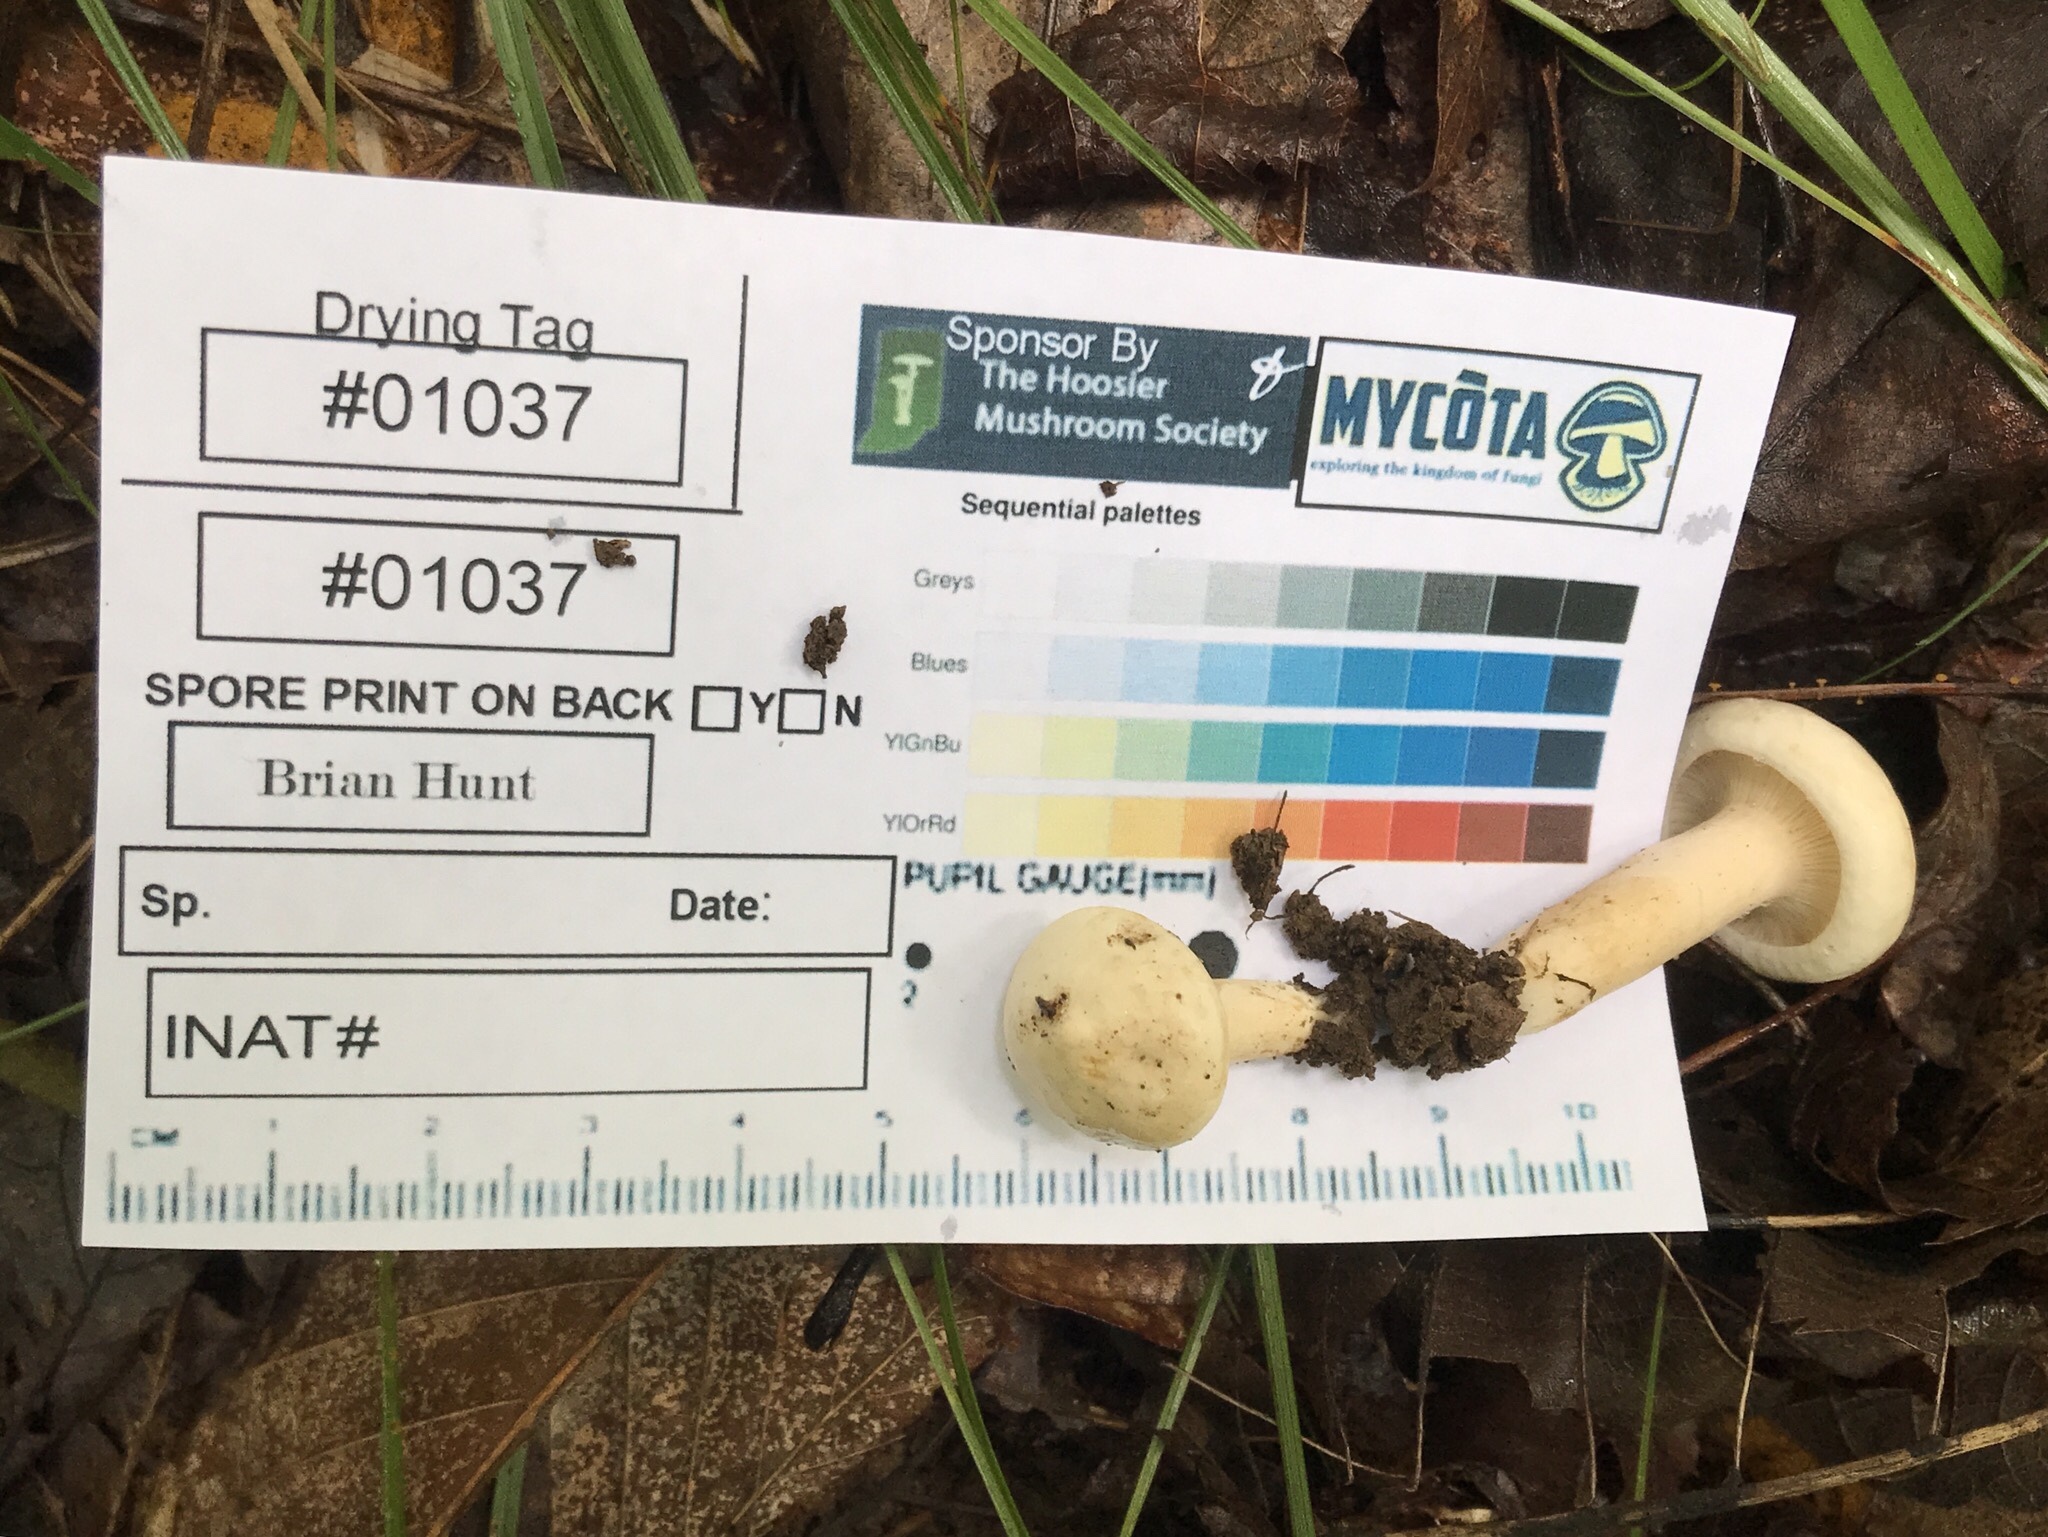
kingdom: Fungi
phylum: Basidiomycota
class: Agaricomycetes
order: Russulales
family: Russulaceae
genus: Lactarius
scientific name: Lactarius subvernalis
